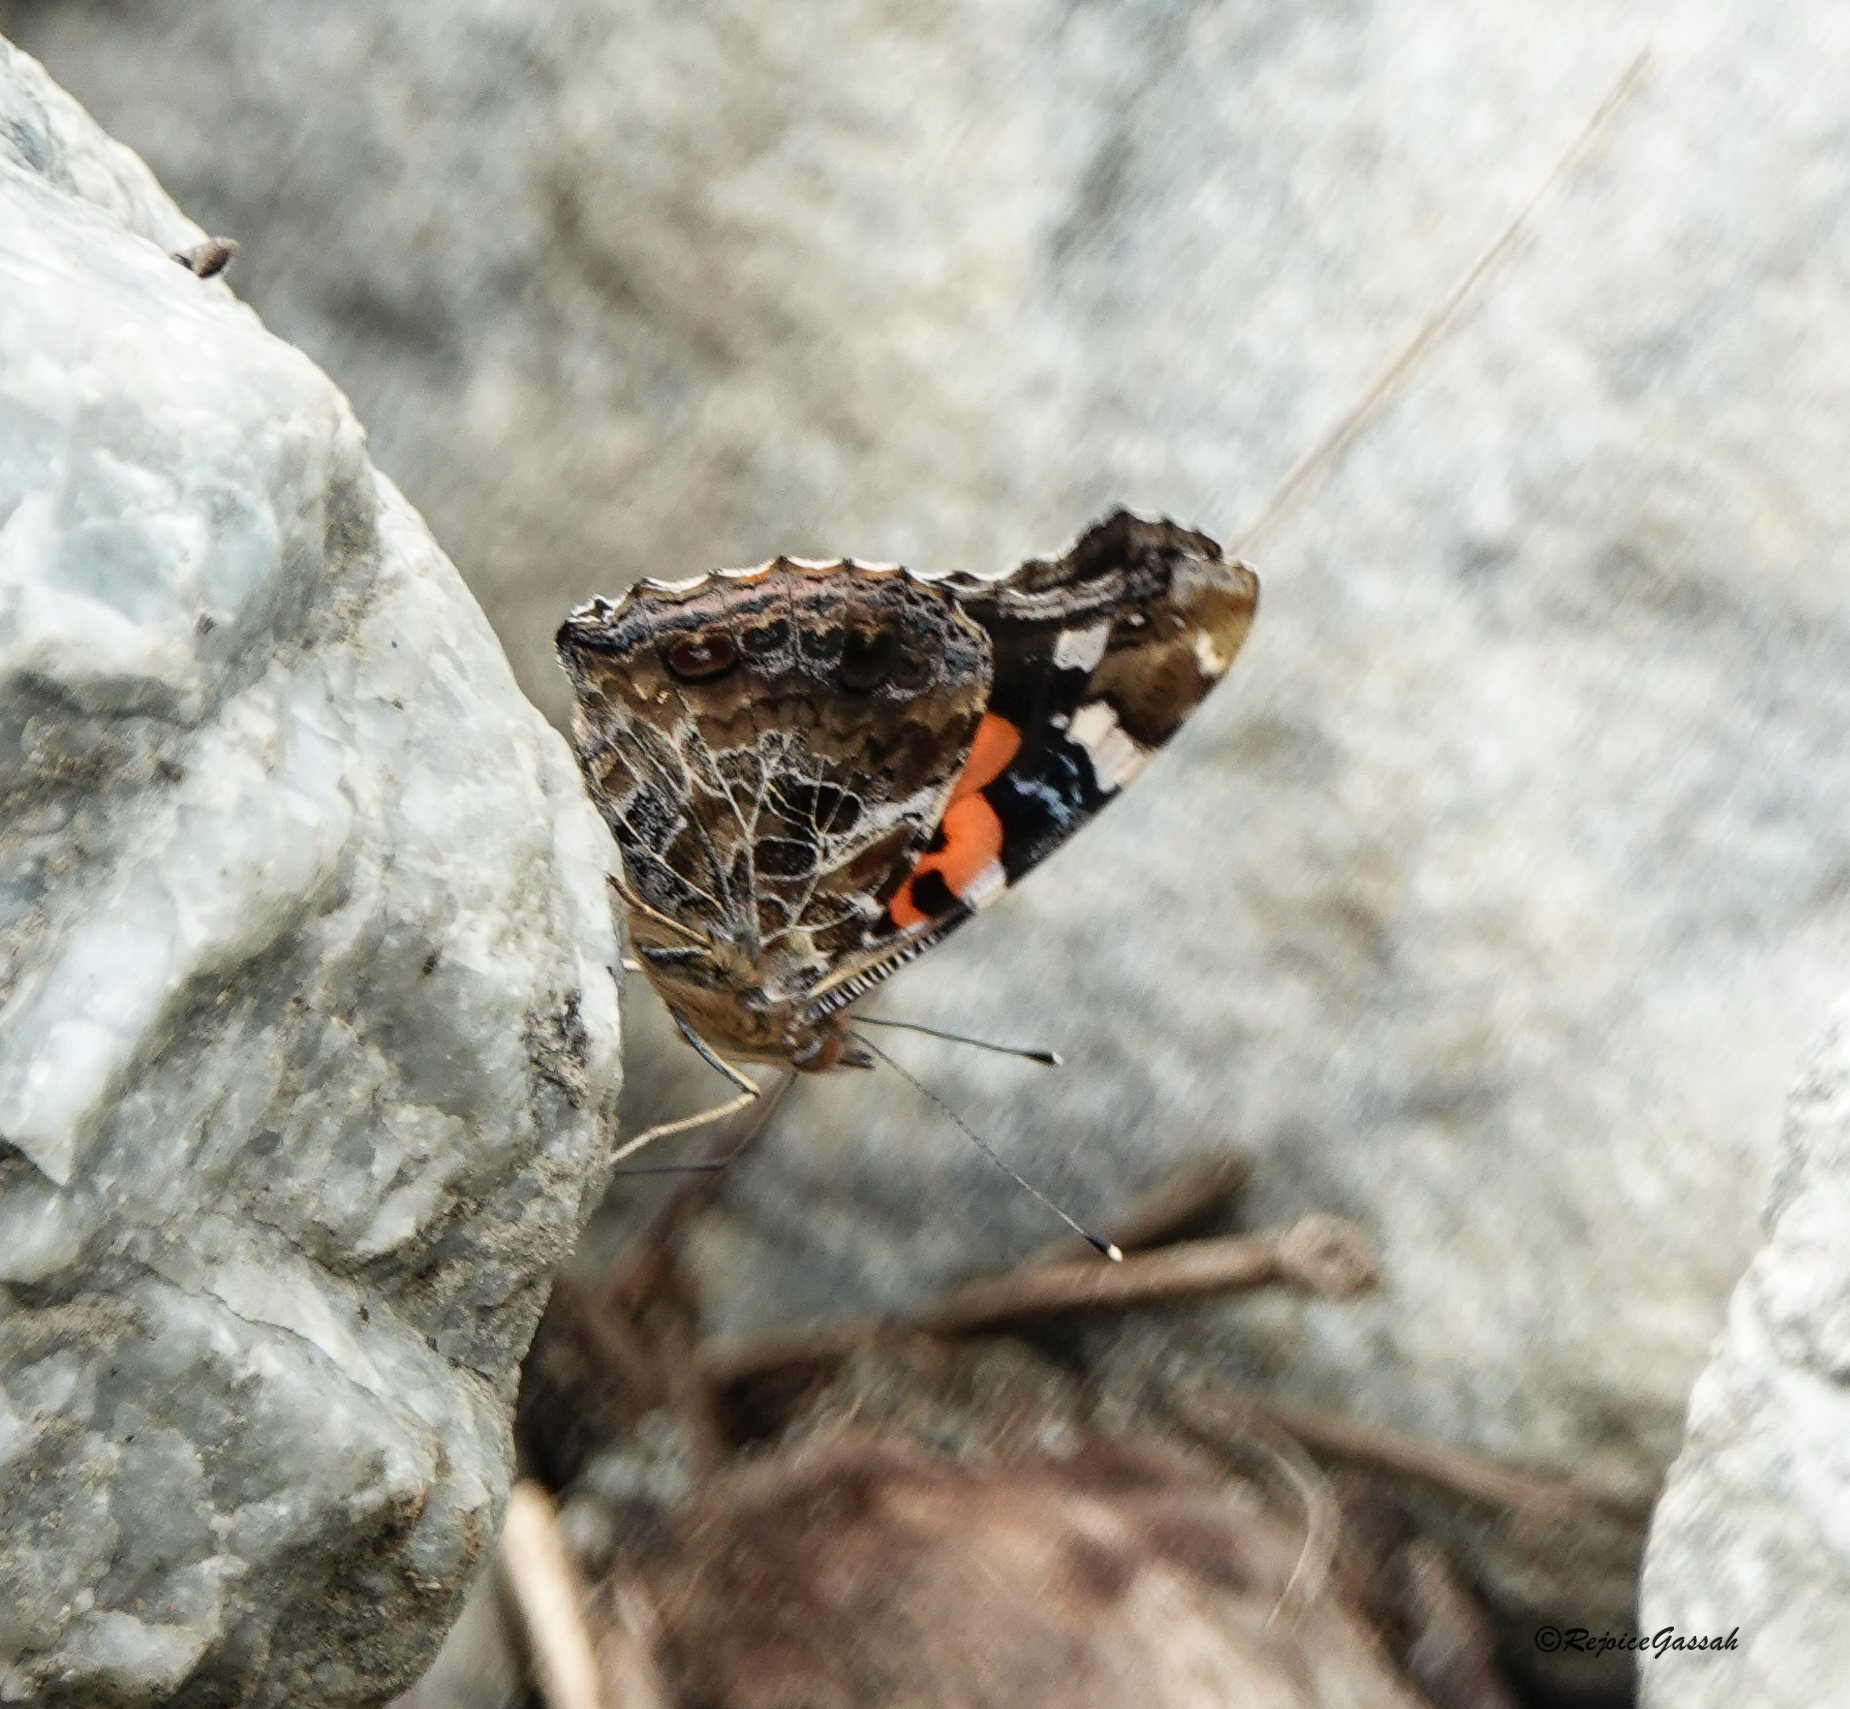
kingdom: Animalia
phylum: Arthropoda
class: Insecta
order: Lepidoptera
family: Nymphalidae
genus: Vanessa
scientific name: Vanessa indica
